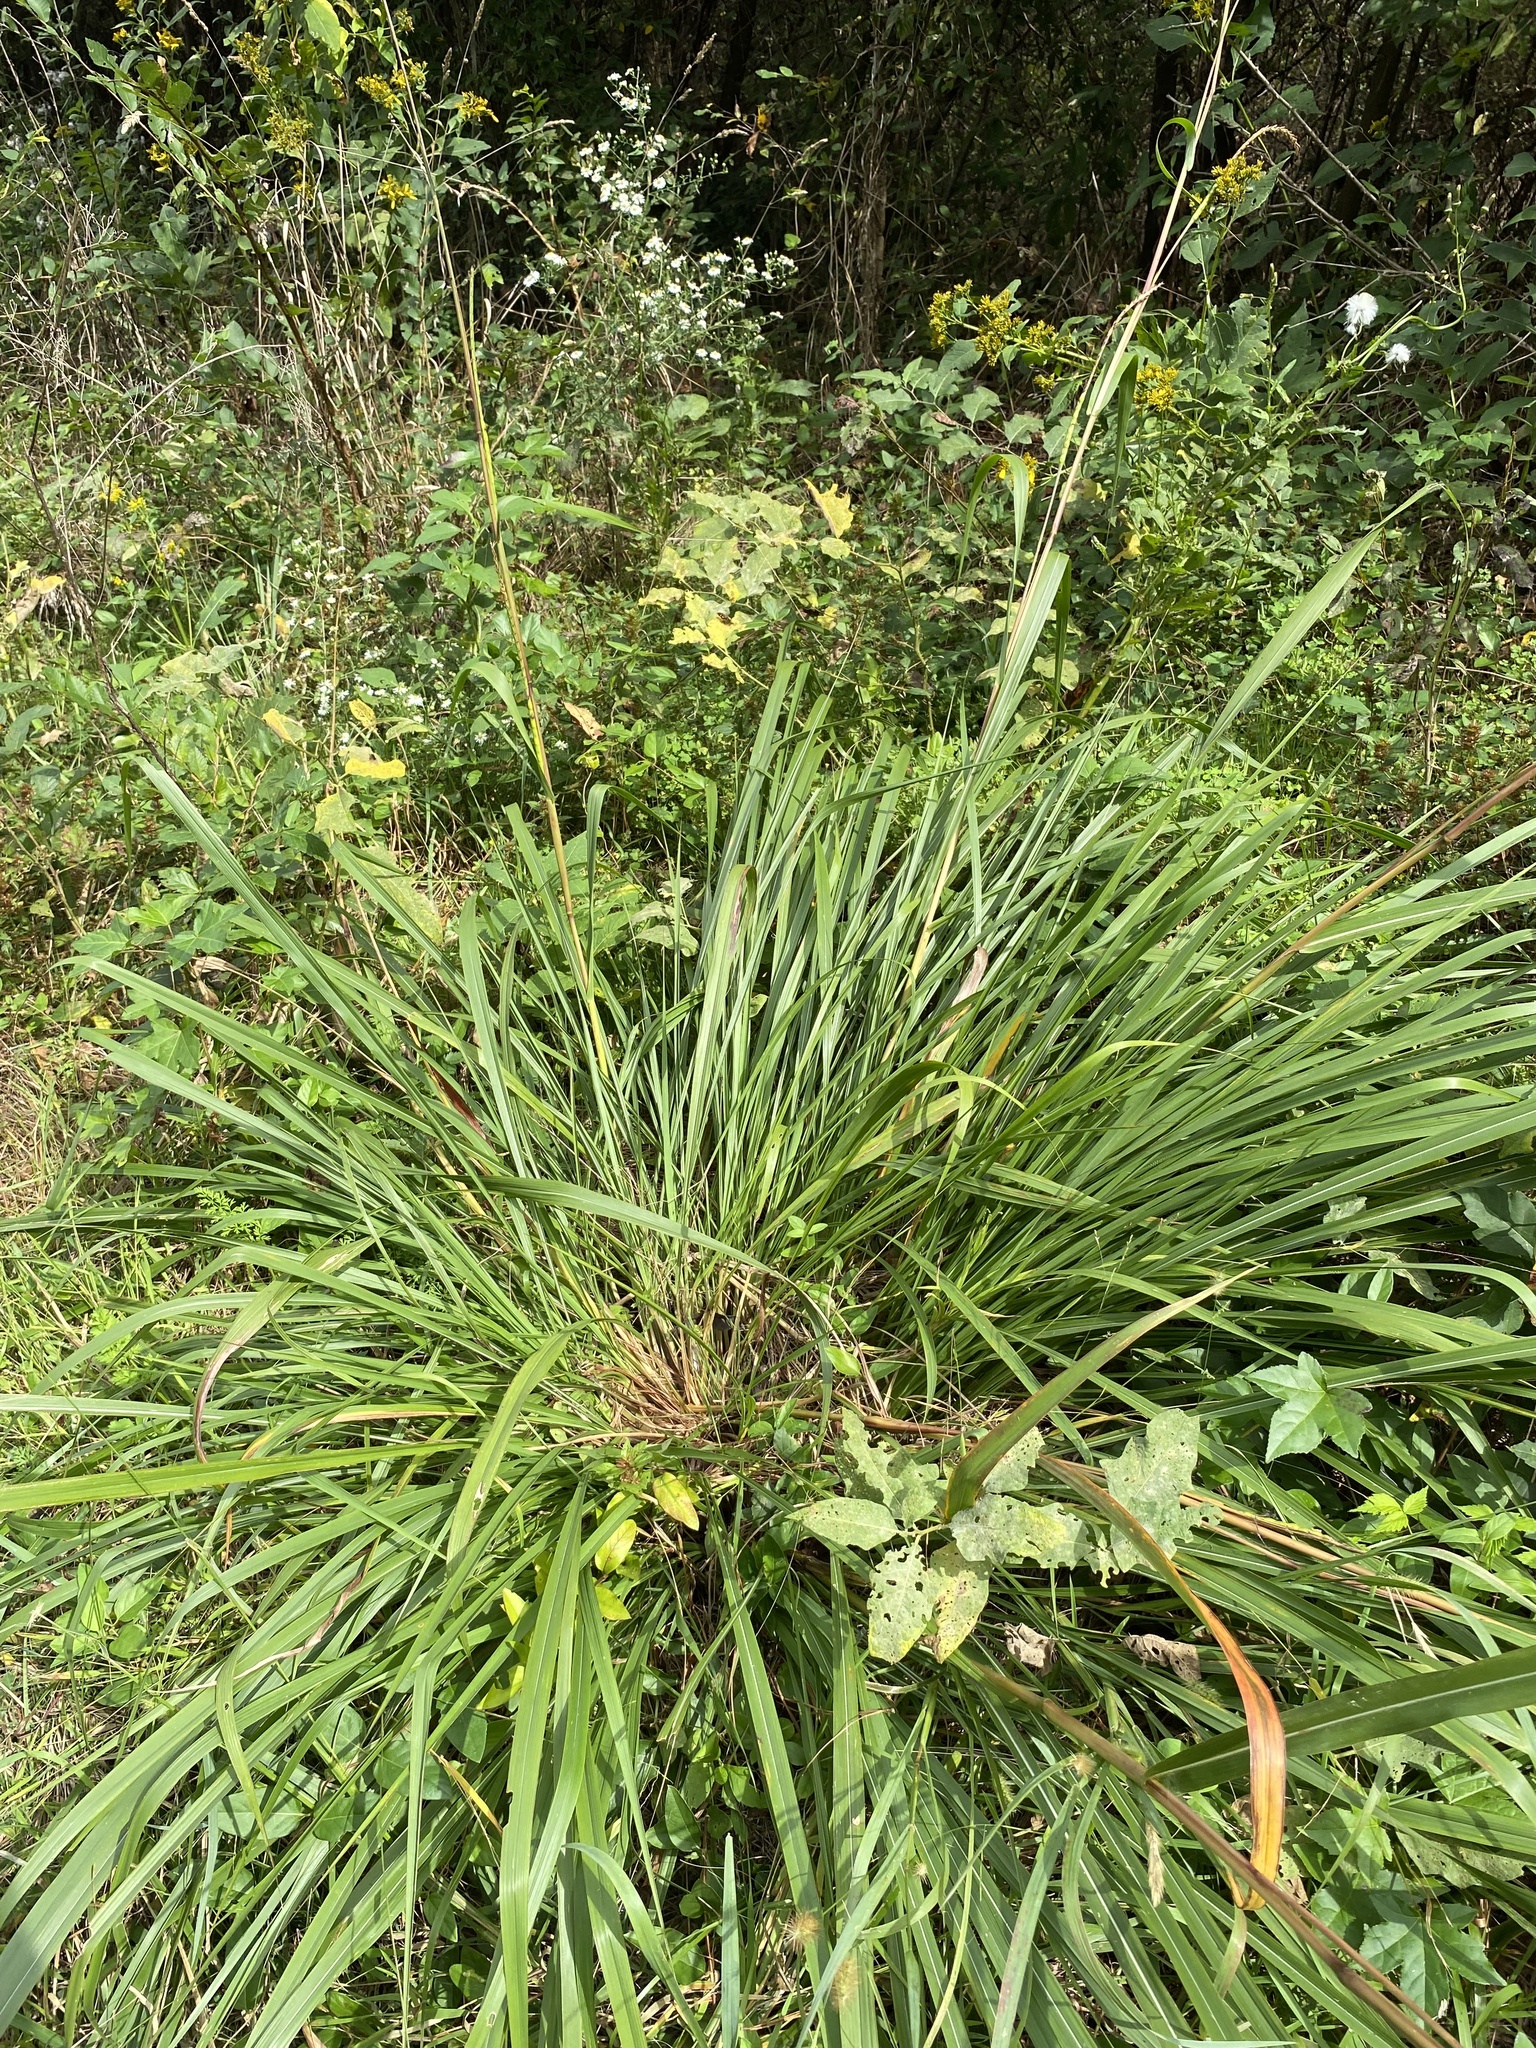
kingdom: Plantae
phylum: Tracheophyta
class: Liliopsida
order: Poales
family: Poaceae
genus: Tripsacum
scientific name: Tripsacum dactyloides
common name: Buffalo-grass
